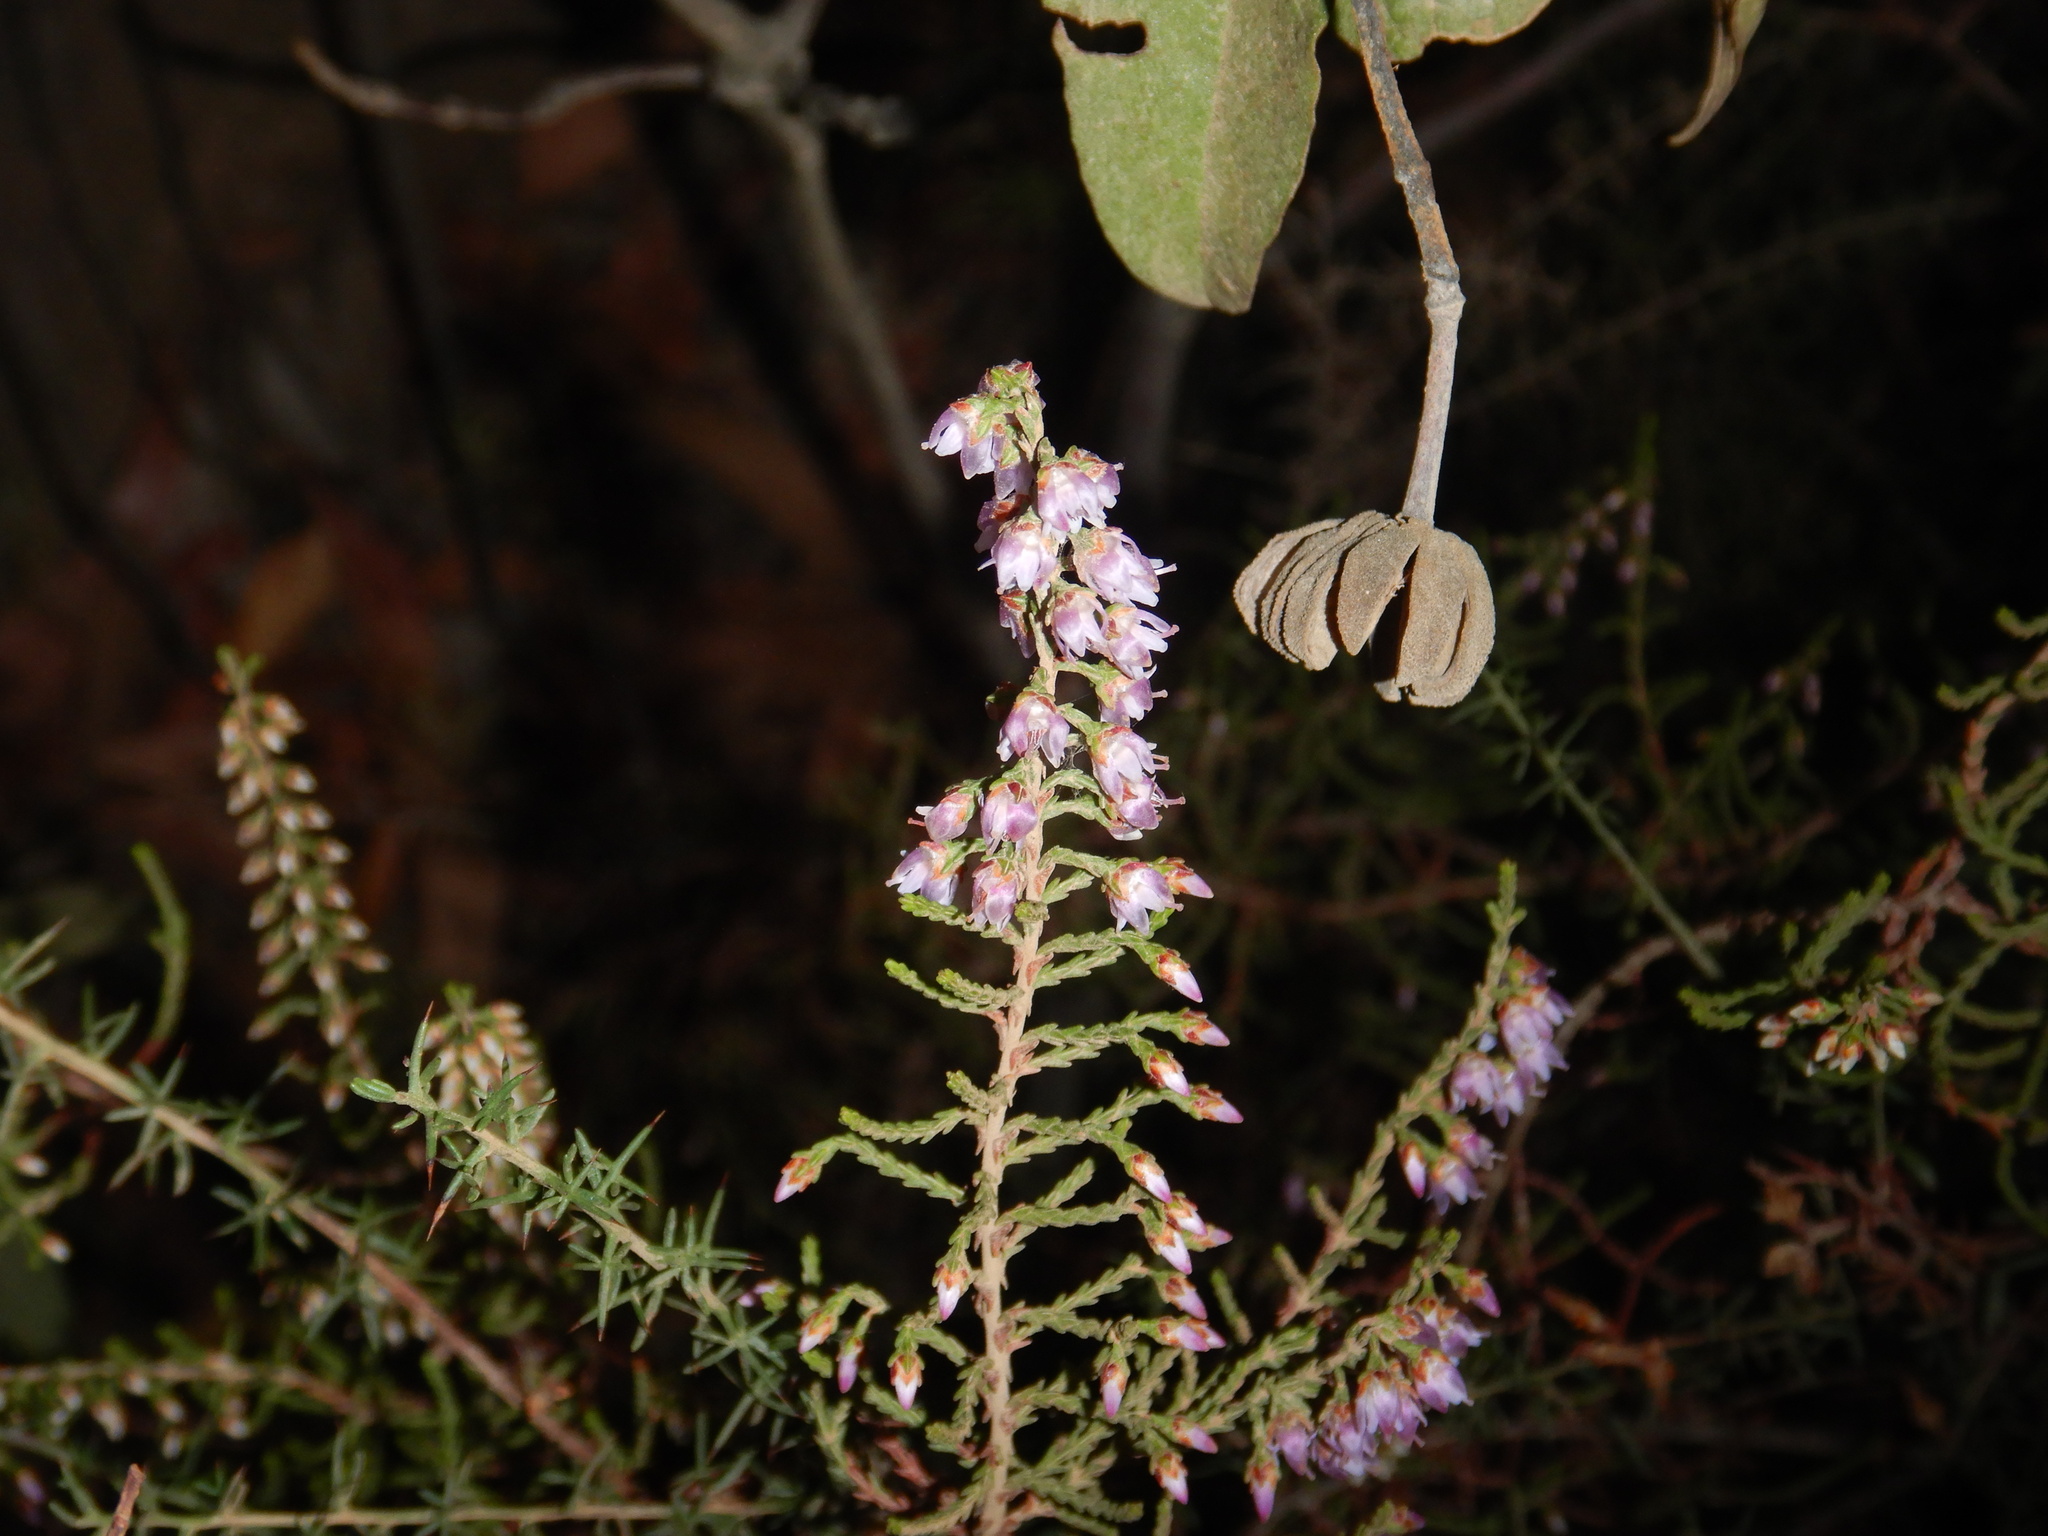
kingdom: Plantae
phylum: Tracheophyta
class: Magnoliopsida
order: Ericales
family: Ericaceae
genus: Calluna
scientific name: Calluna vulgaris
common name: Heather
